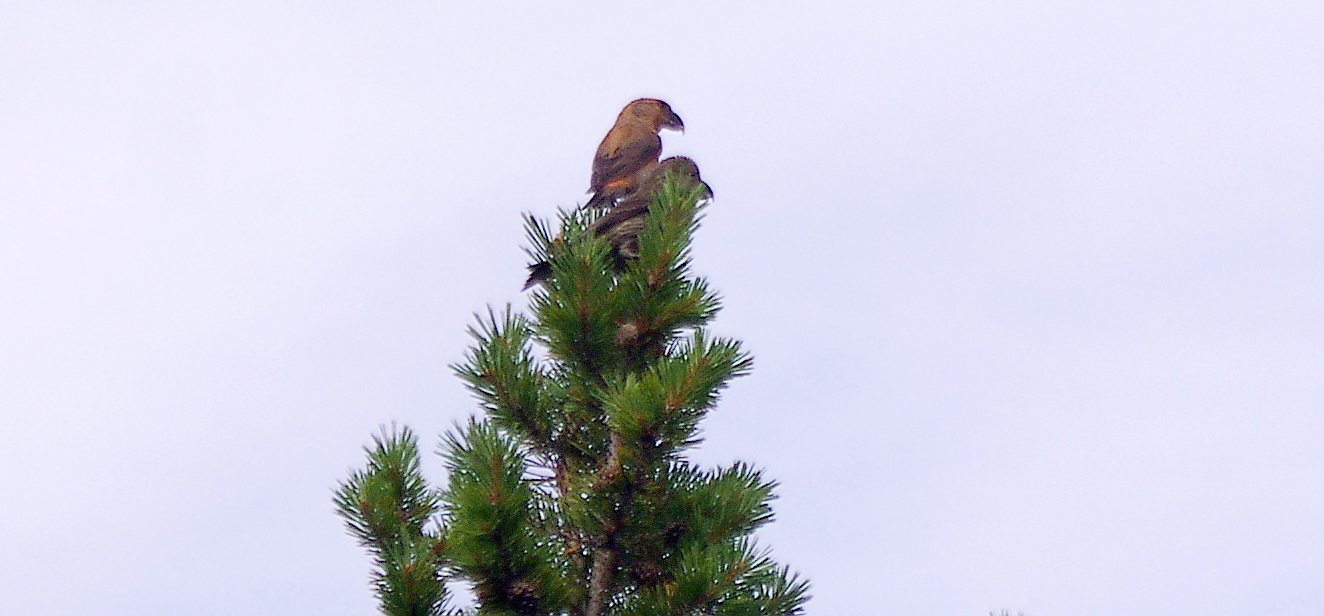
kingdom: Plantae
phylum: Tracheophyta
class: Pinopsida
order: Pinales
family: Pinaceae
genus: Pinus
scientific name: Pinus sylvestris
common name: Scots pine
